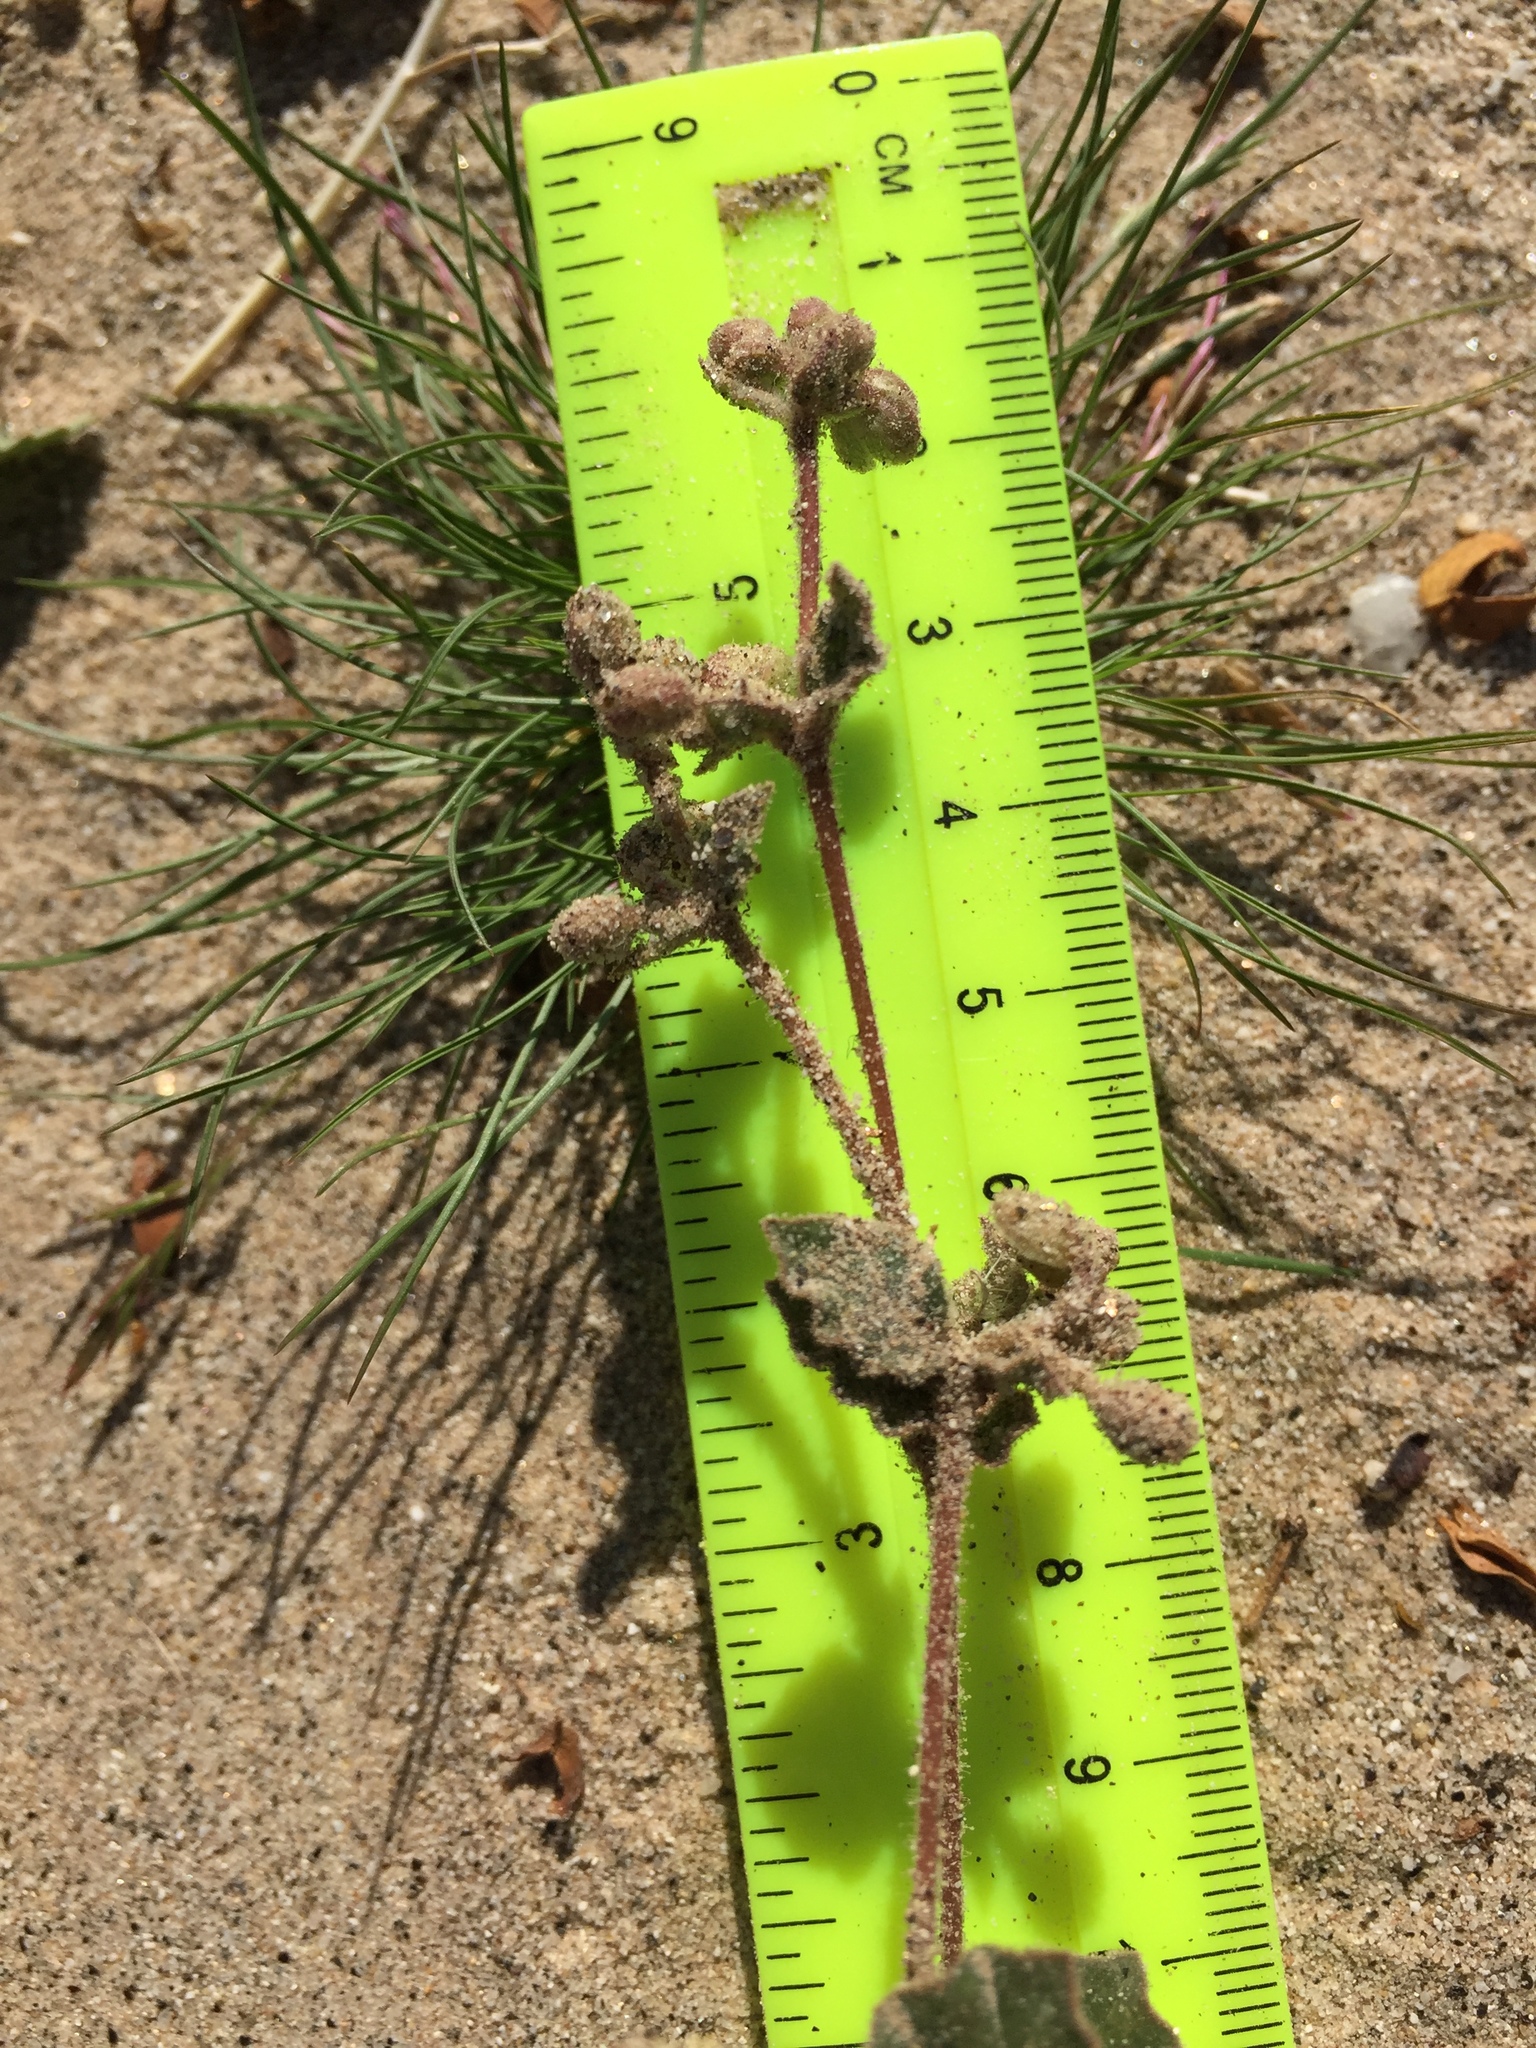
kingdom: Plantae
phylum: Tracheophyta
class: Magnoliopsida
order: Caryophyllales
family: Nyctaginaceae
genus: Allionia
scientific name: Allionia incarnata
